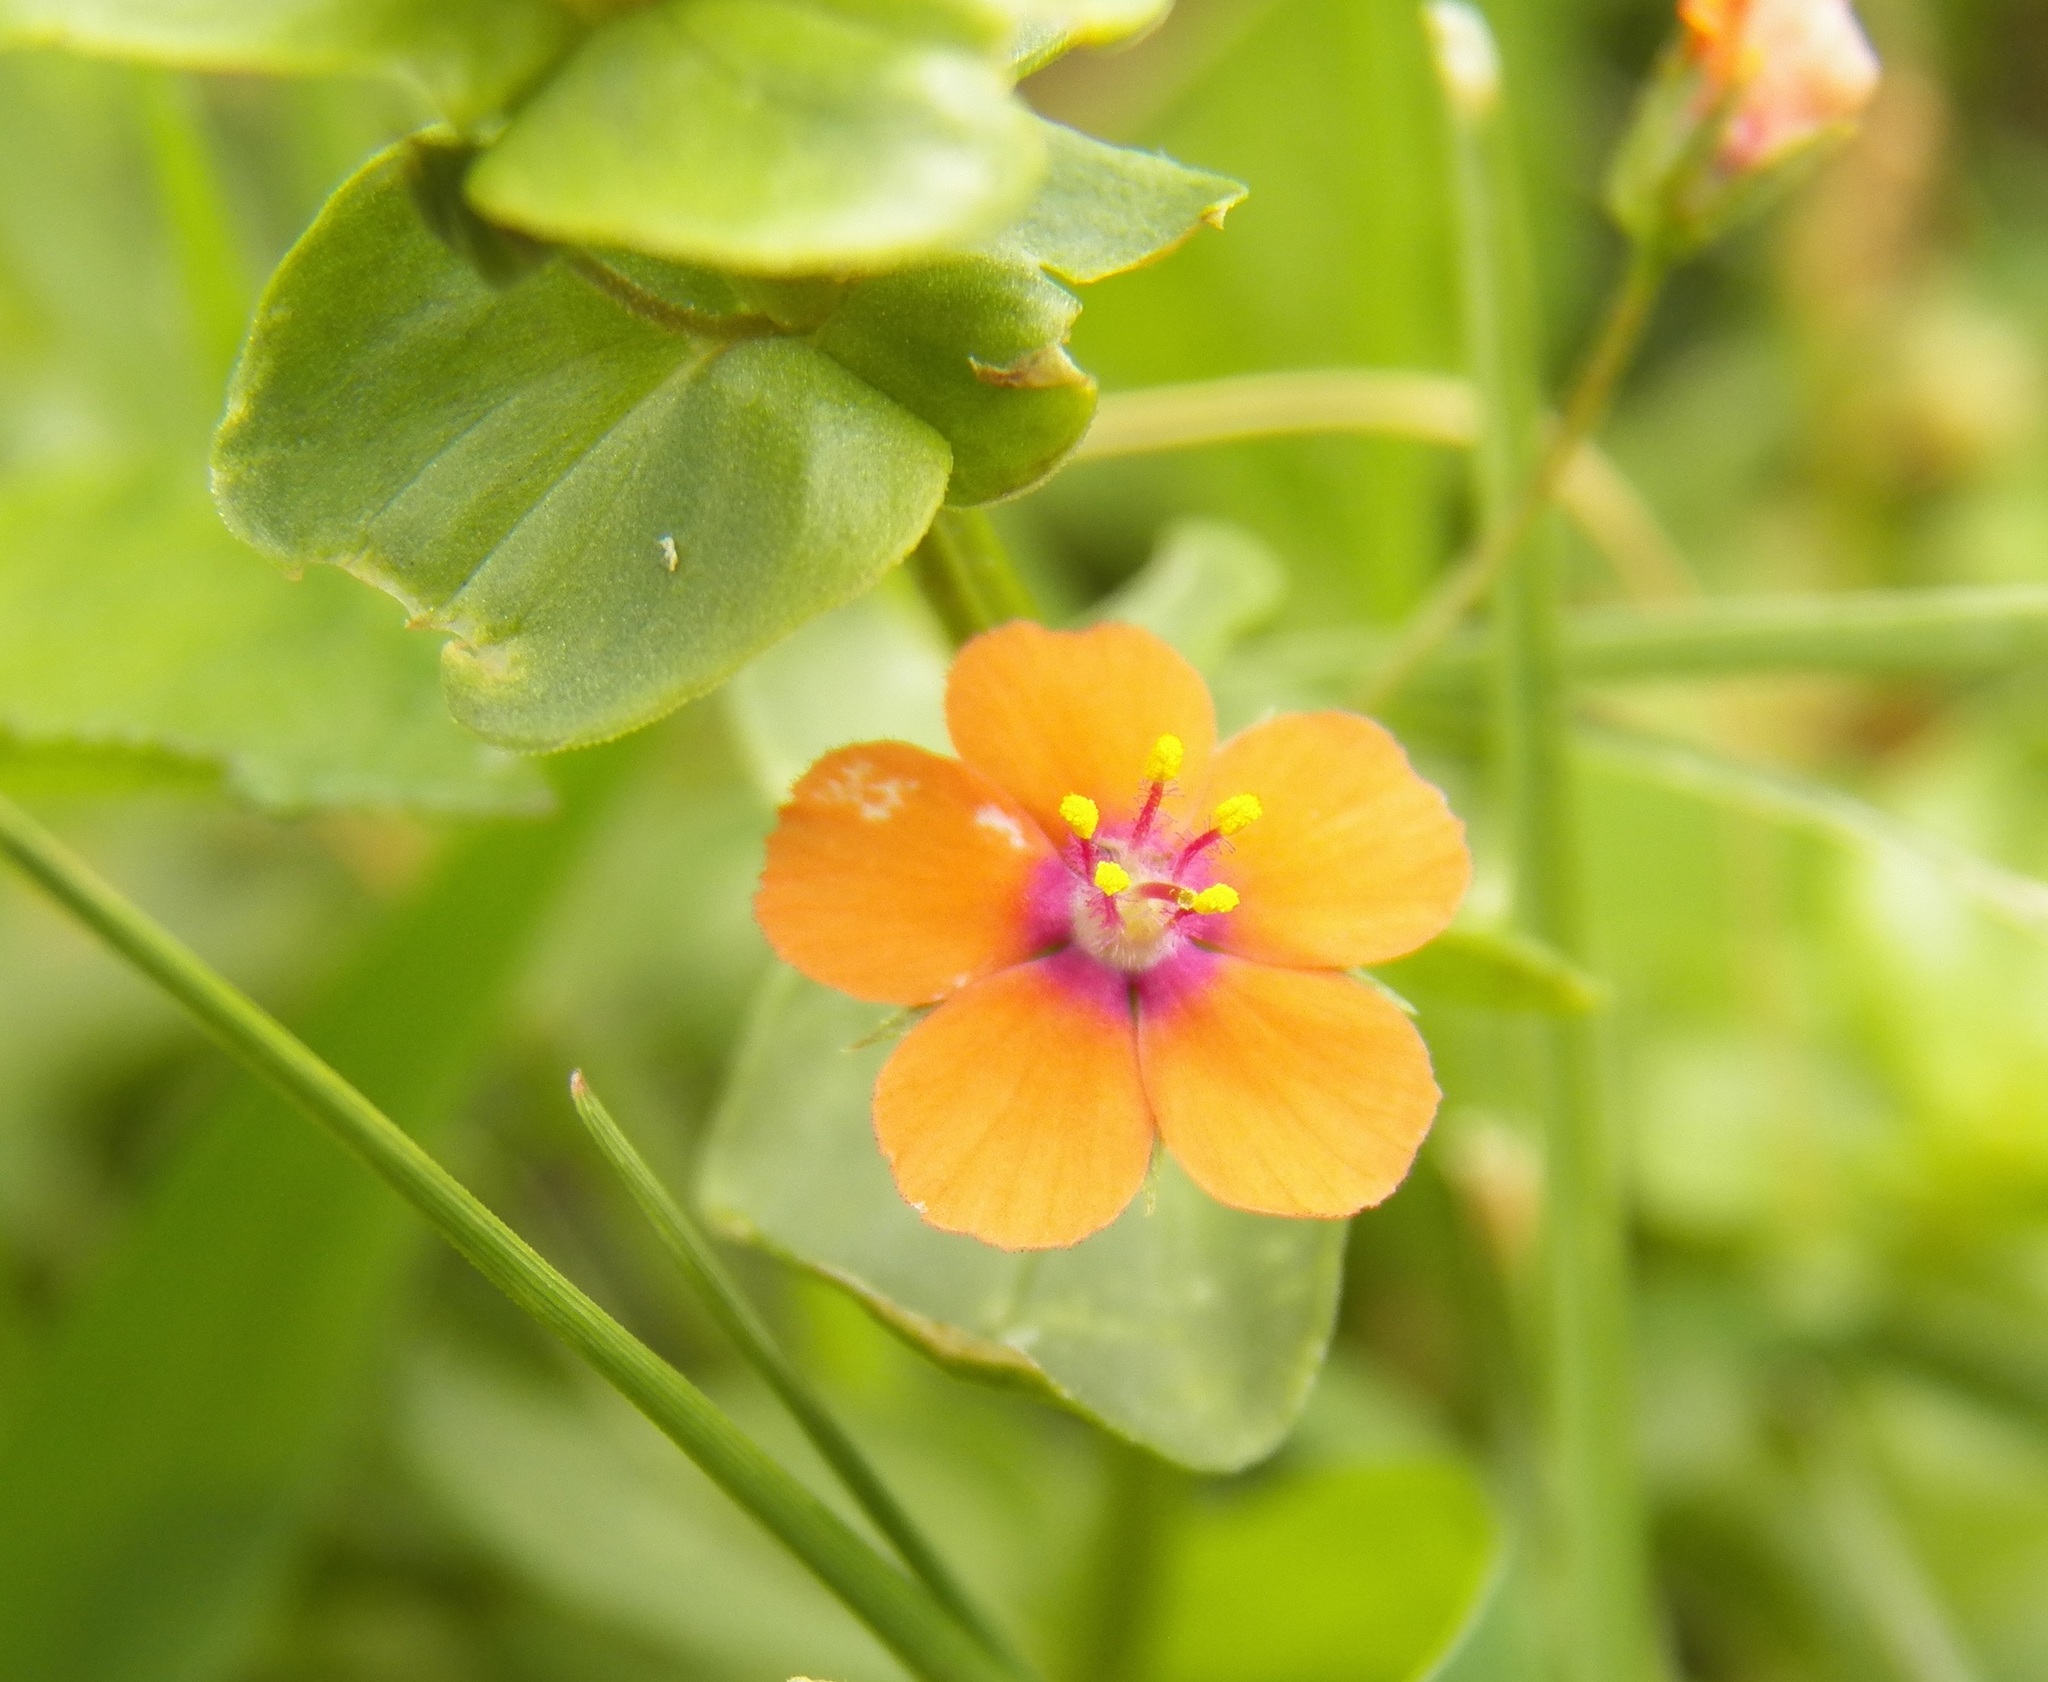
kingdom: Plantae
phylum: Tracheophyta
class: Magnoliopsida
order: Ericales
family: Primulaceae
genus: Lysimachia
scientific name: Lysimachia arvensis
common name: Scarlet pimpernel
